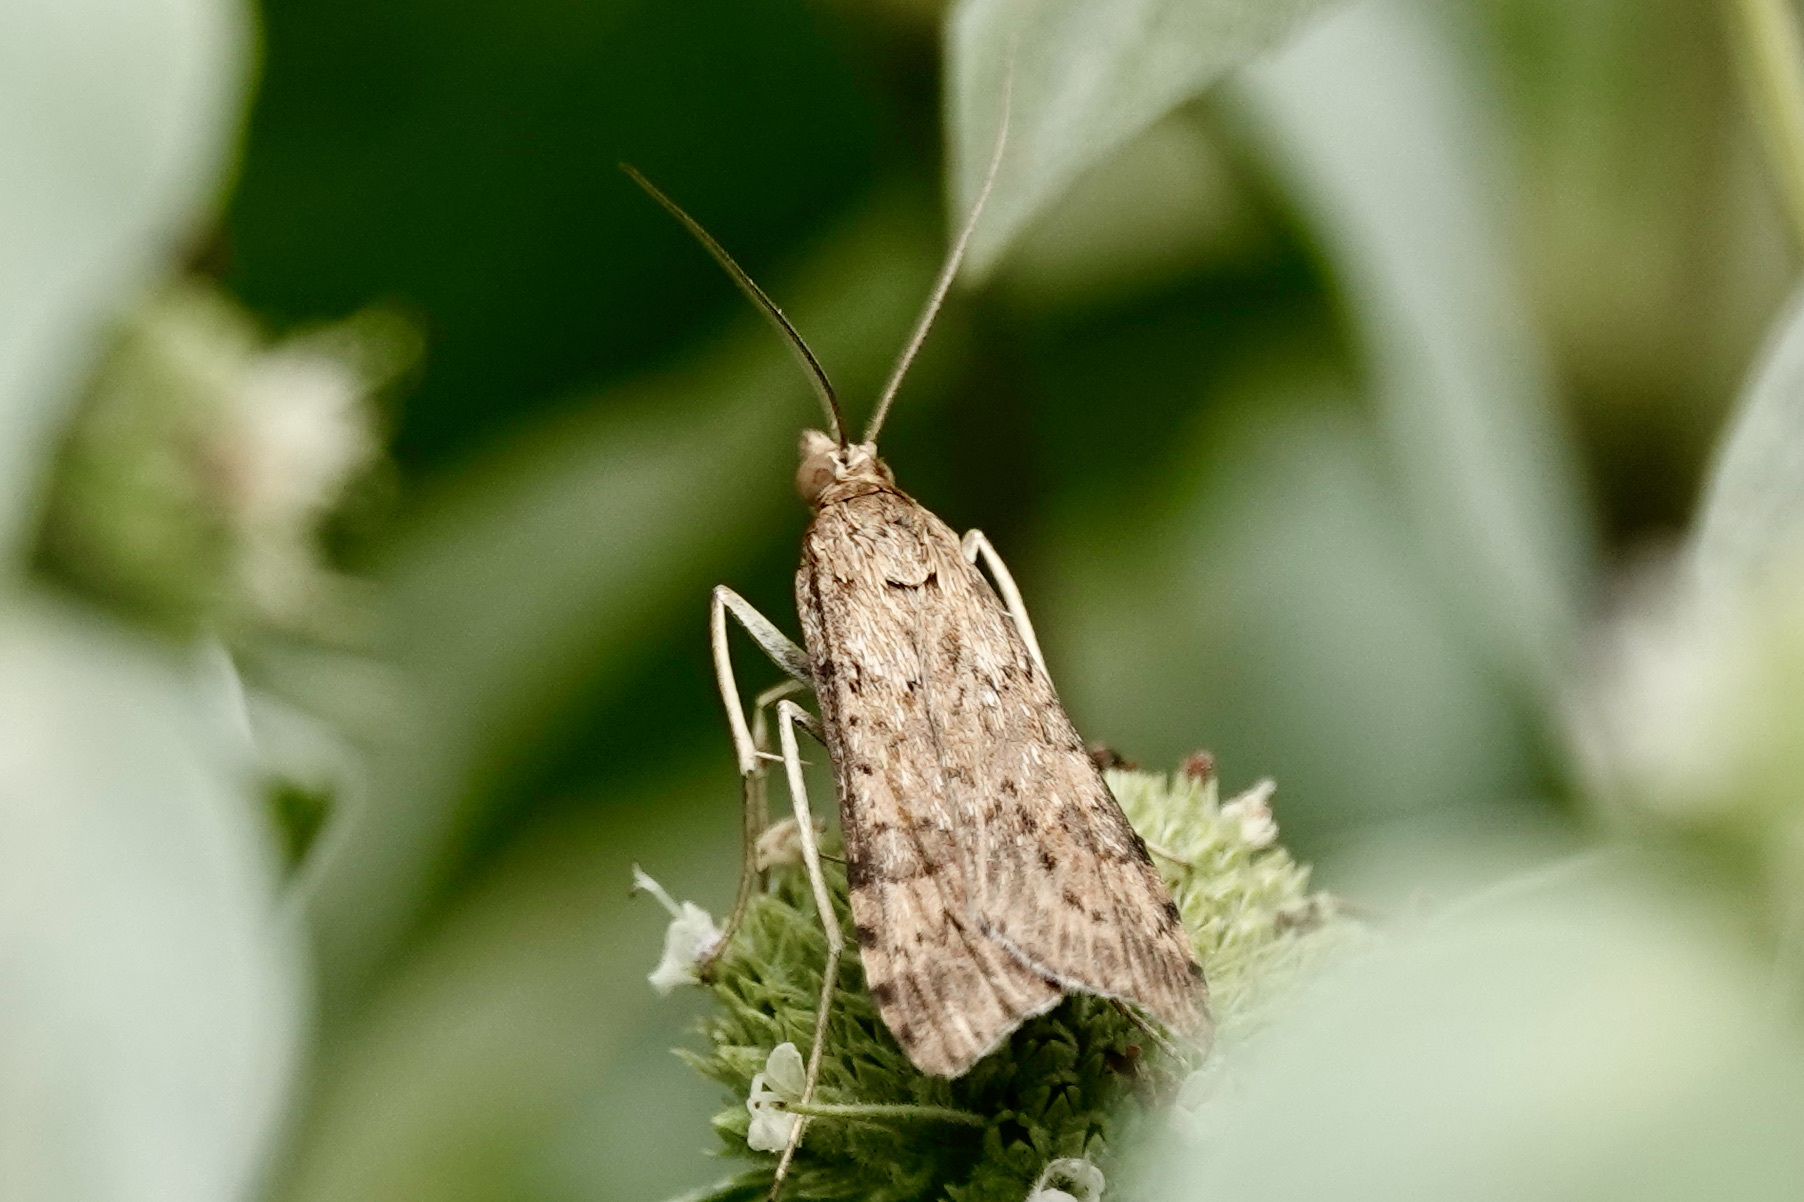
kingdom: Animalia
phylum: Arthropoda
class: Insecta
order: Lepidoptera
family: Crambidae
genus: Nomophila
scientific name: Nomophila nearctica
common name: American rush veneer
